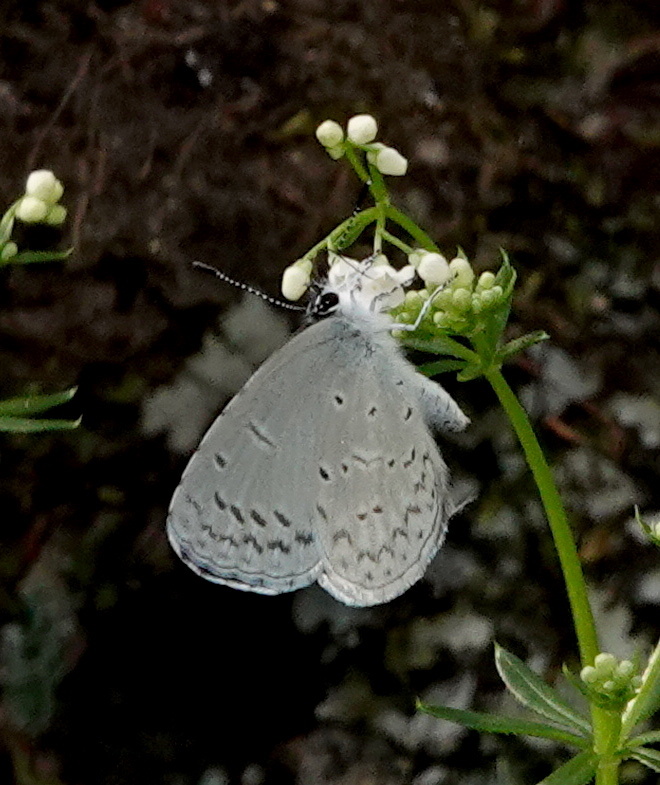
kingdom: Animalia
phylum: Arthropoda
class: Insecta
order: Lepidoptera
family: Lycaenidae
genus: Celastrina
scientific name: Celastrina ladon
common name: Spring azure
